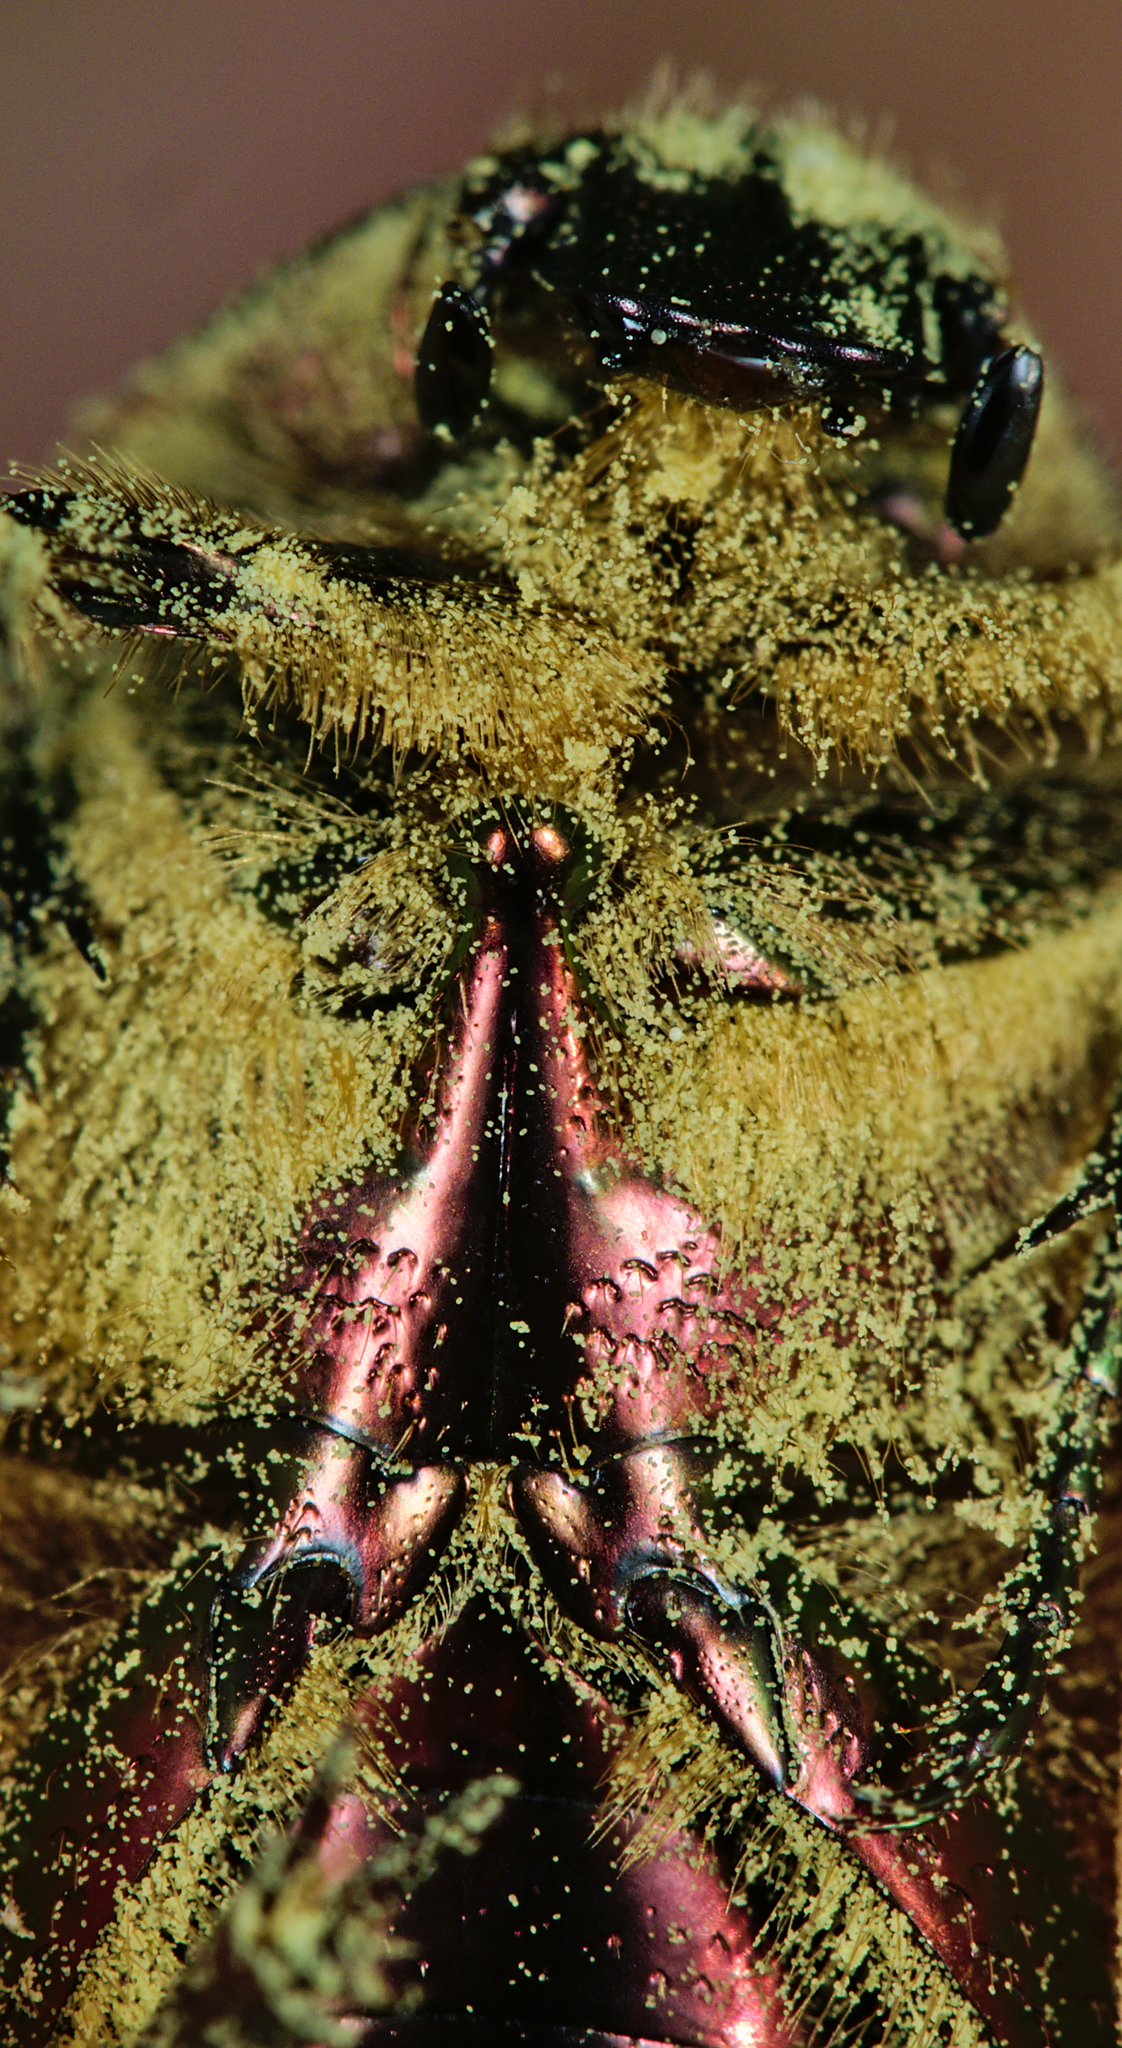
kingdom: Animalia
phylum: Arthropoda
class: Insecta
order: Coleoptera
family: Scarabaeidae
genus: Cetonia
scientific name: Cetonia aurata
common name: Rose chafer
